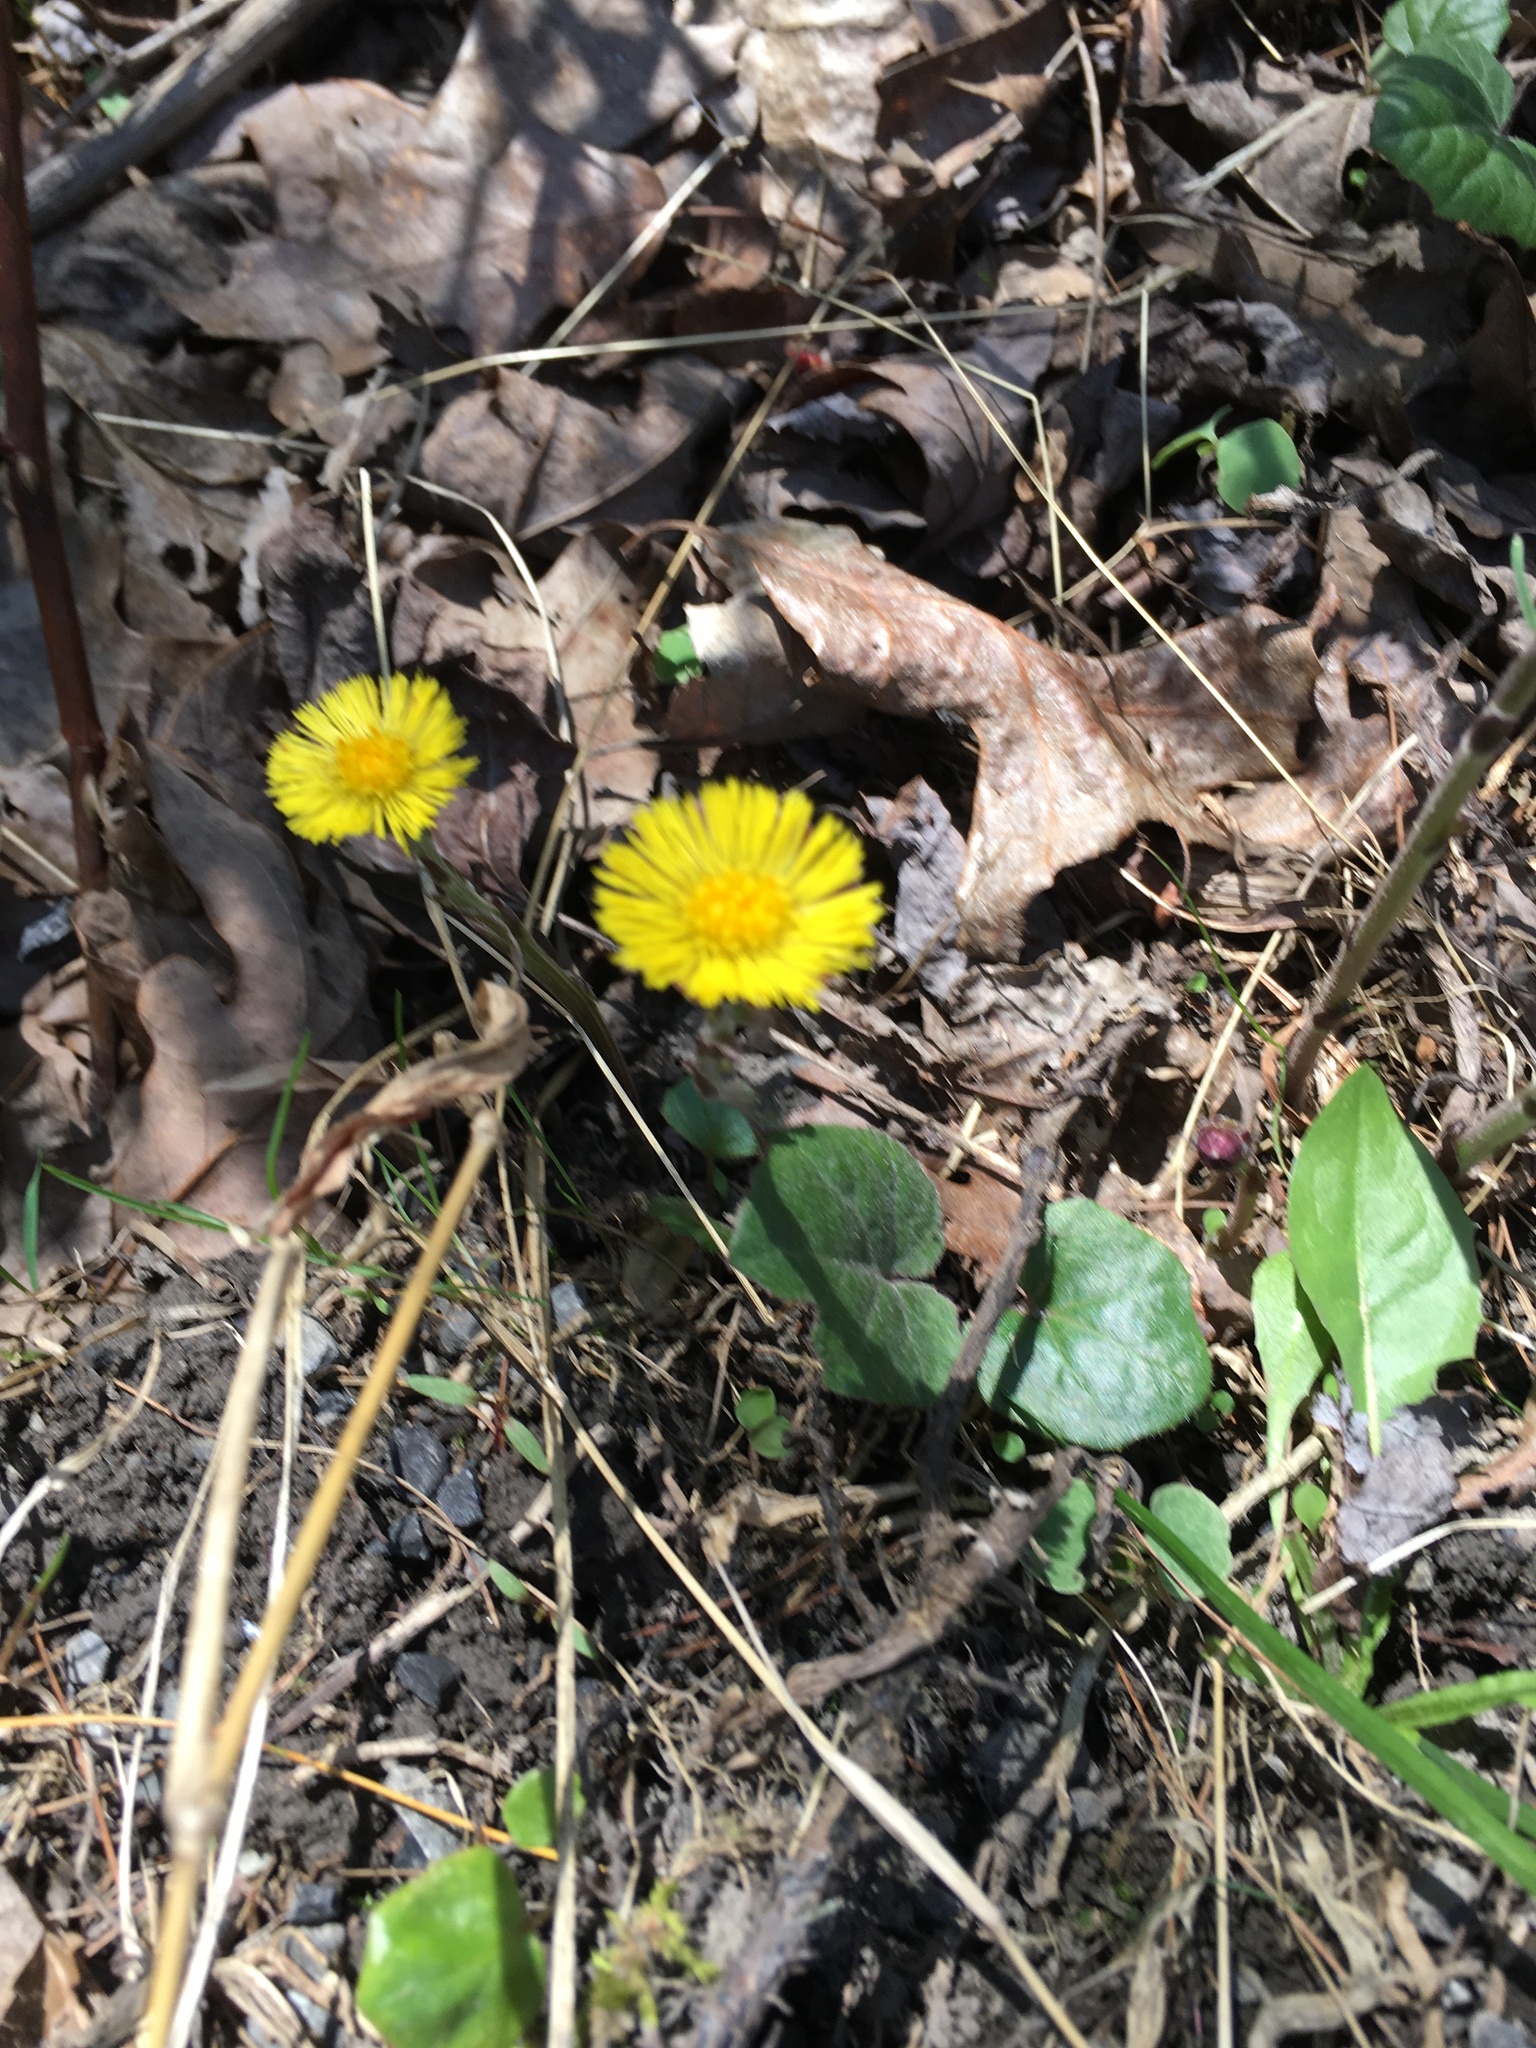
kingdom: Plantae
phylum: Tracheophyta
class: Magnoliopsida
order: Asterales
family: Asteraceae
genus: Tussilago
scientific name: Tussilago farfara
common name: Coltsfoot
